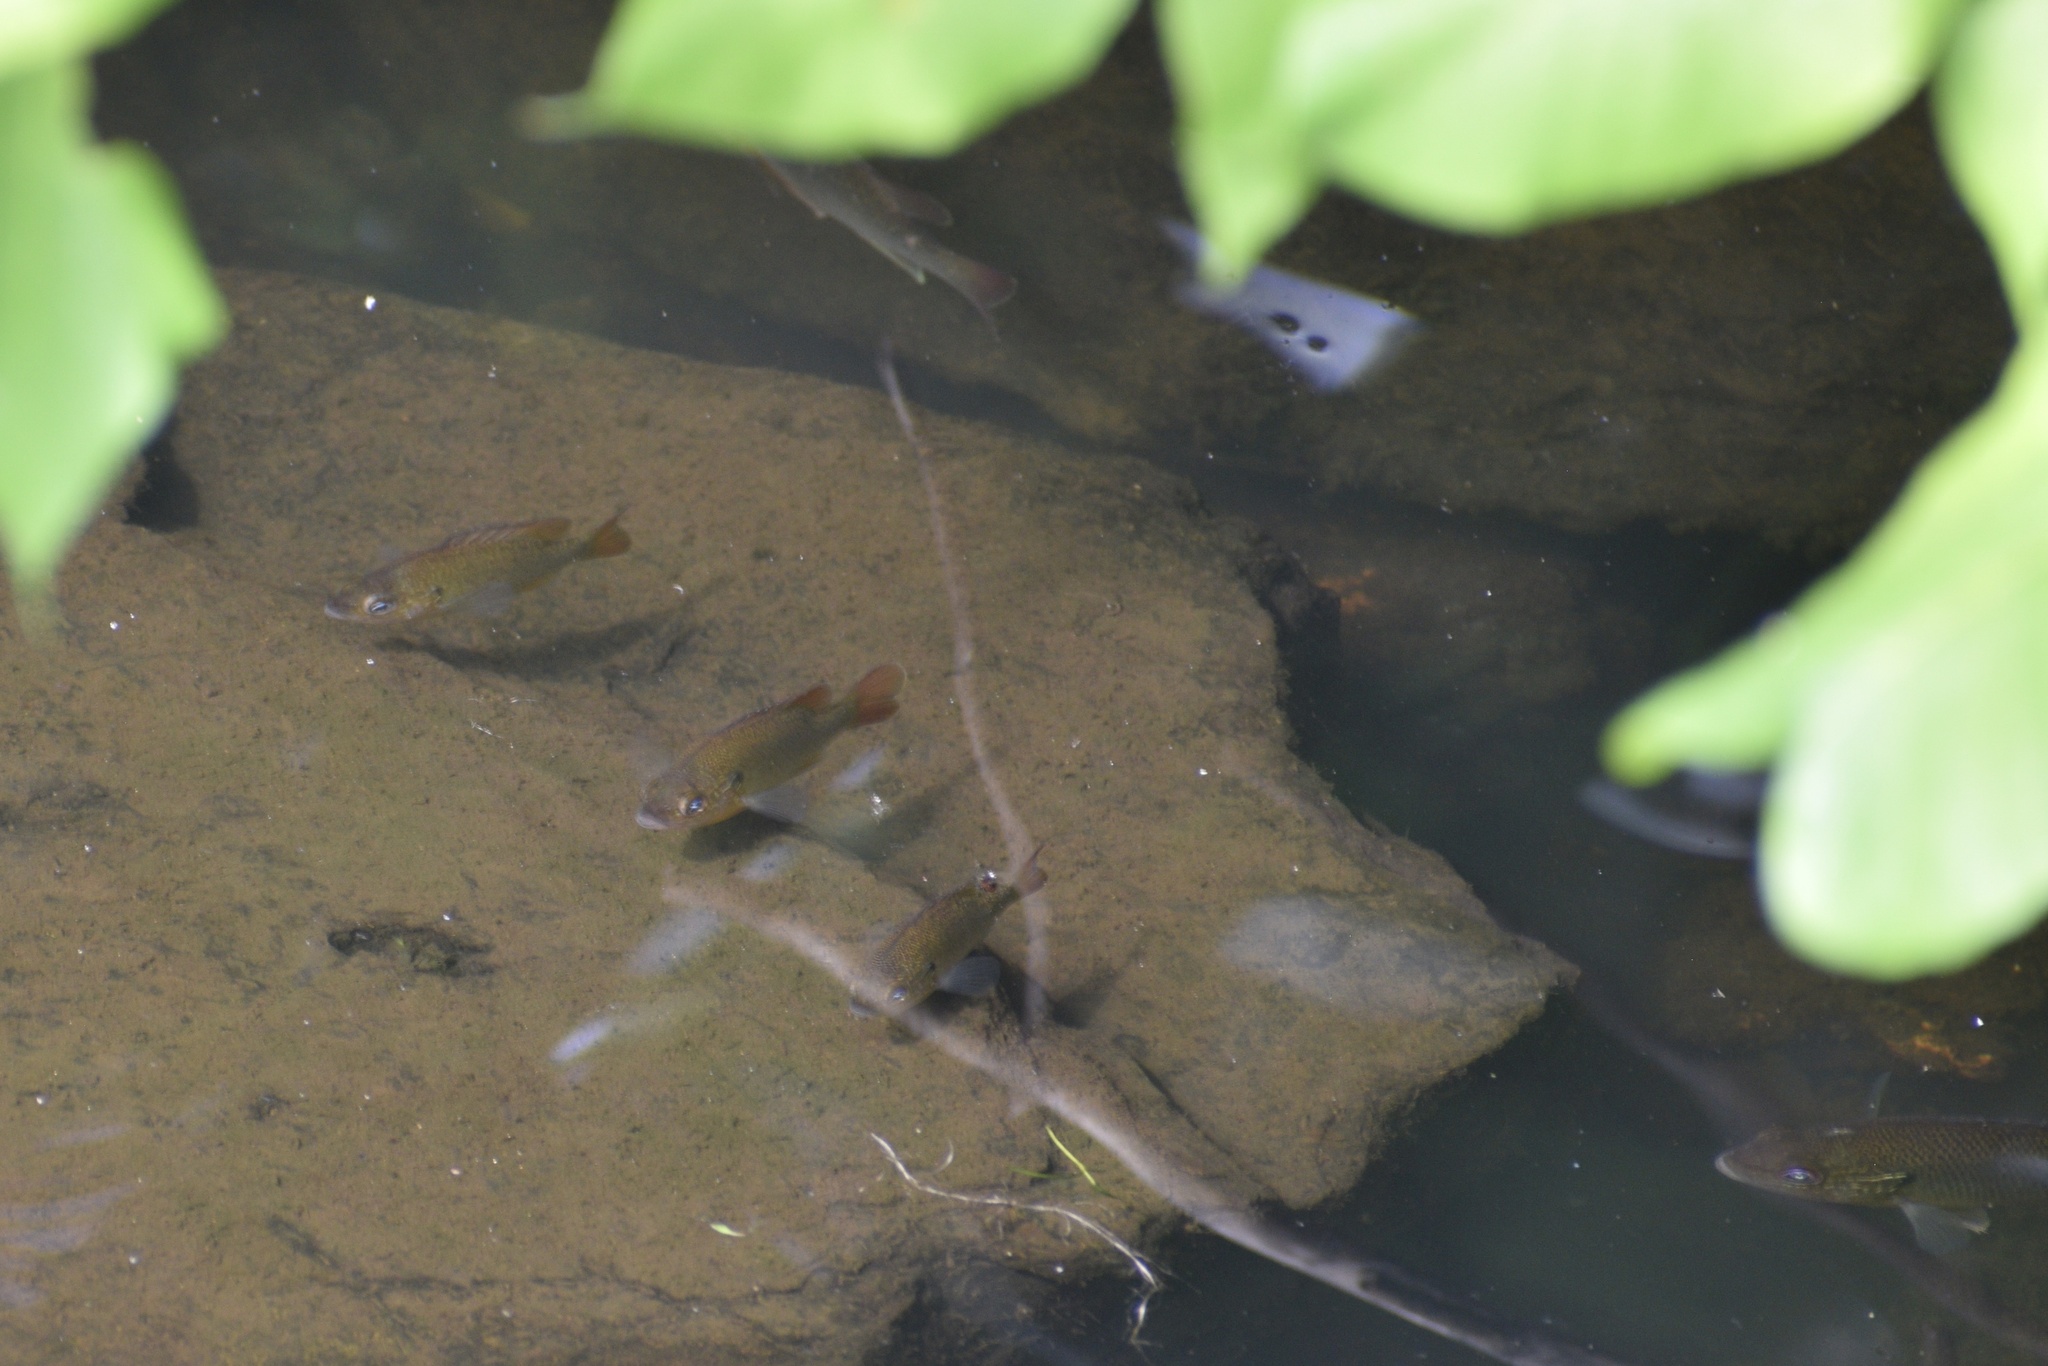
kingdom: Animalia
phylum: Chordata
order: Perciformes
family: Centrarchidae
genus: Lepomis
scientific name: Lepomis
